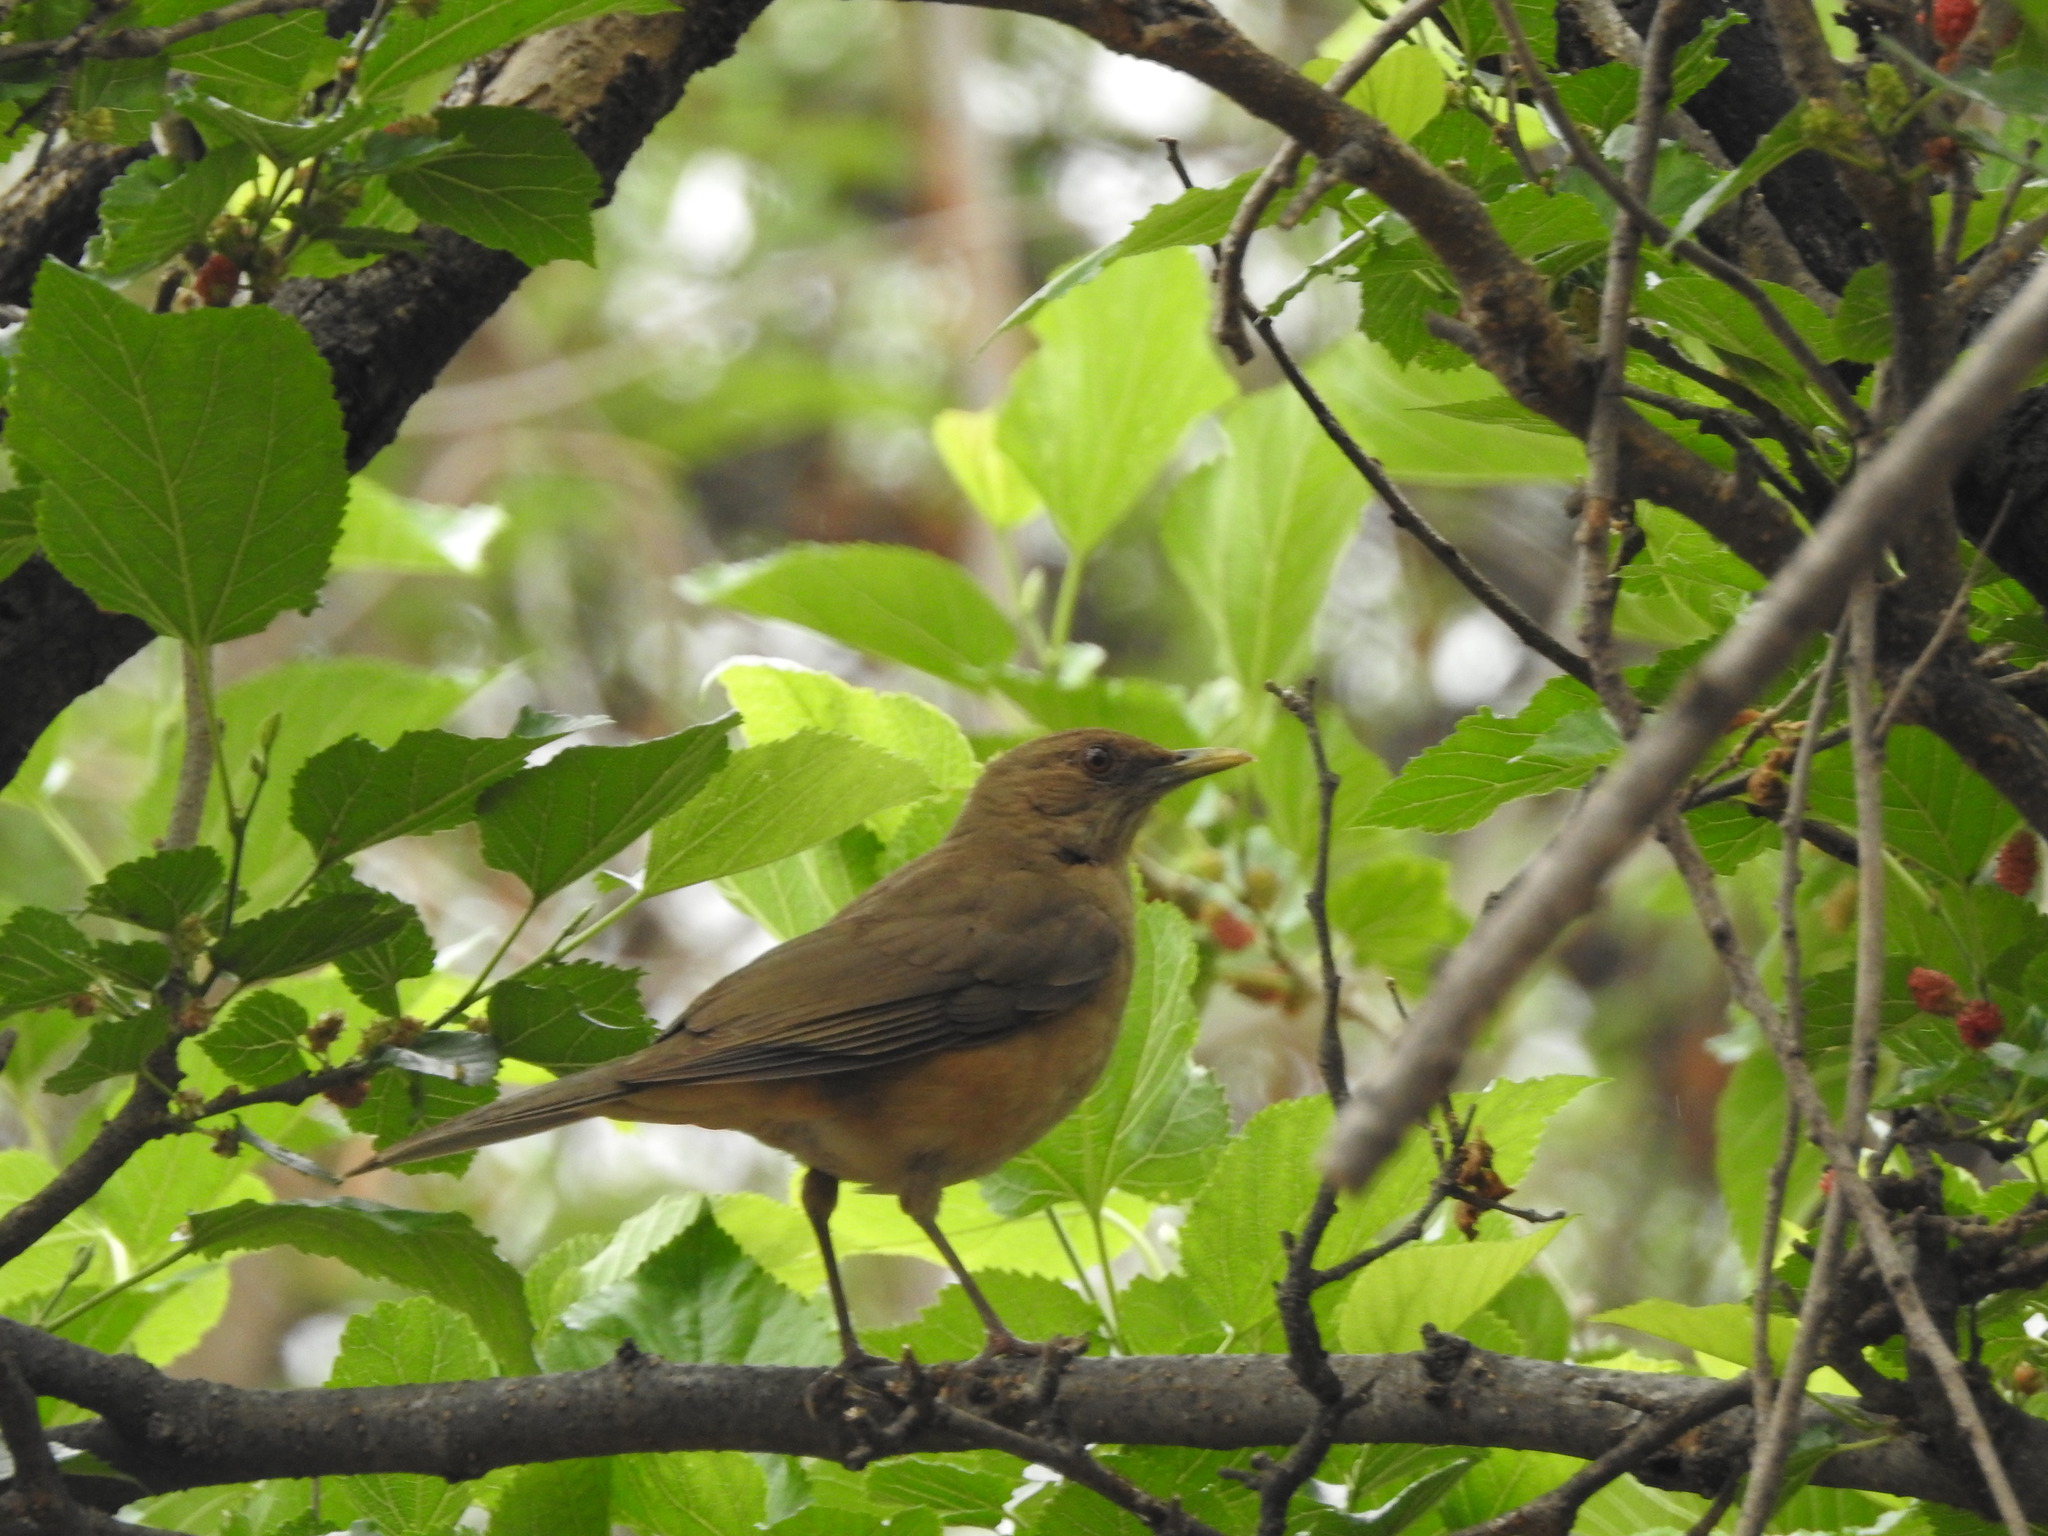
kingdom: Animalia
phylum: Chordata
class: Aves
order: Passeriformes
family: Turdidae
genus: Turdus
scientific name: Turdus grayi
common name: Clay-colored thrush
